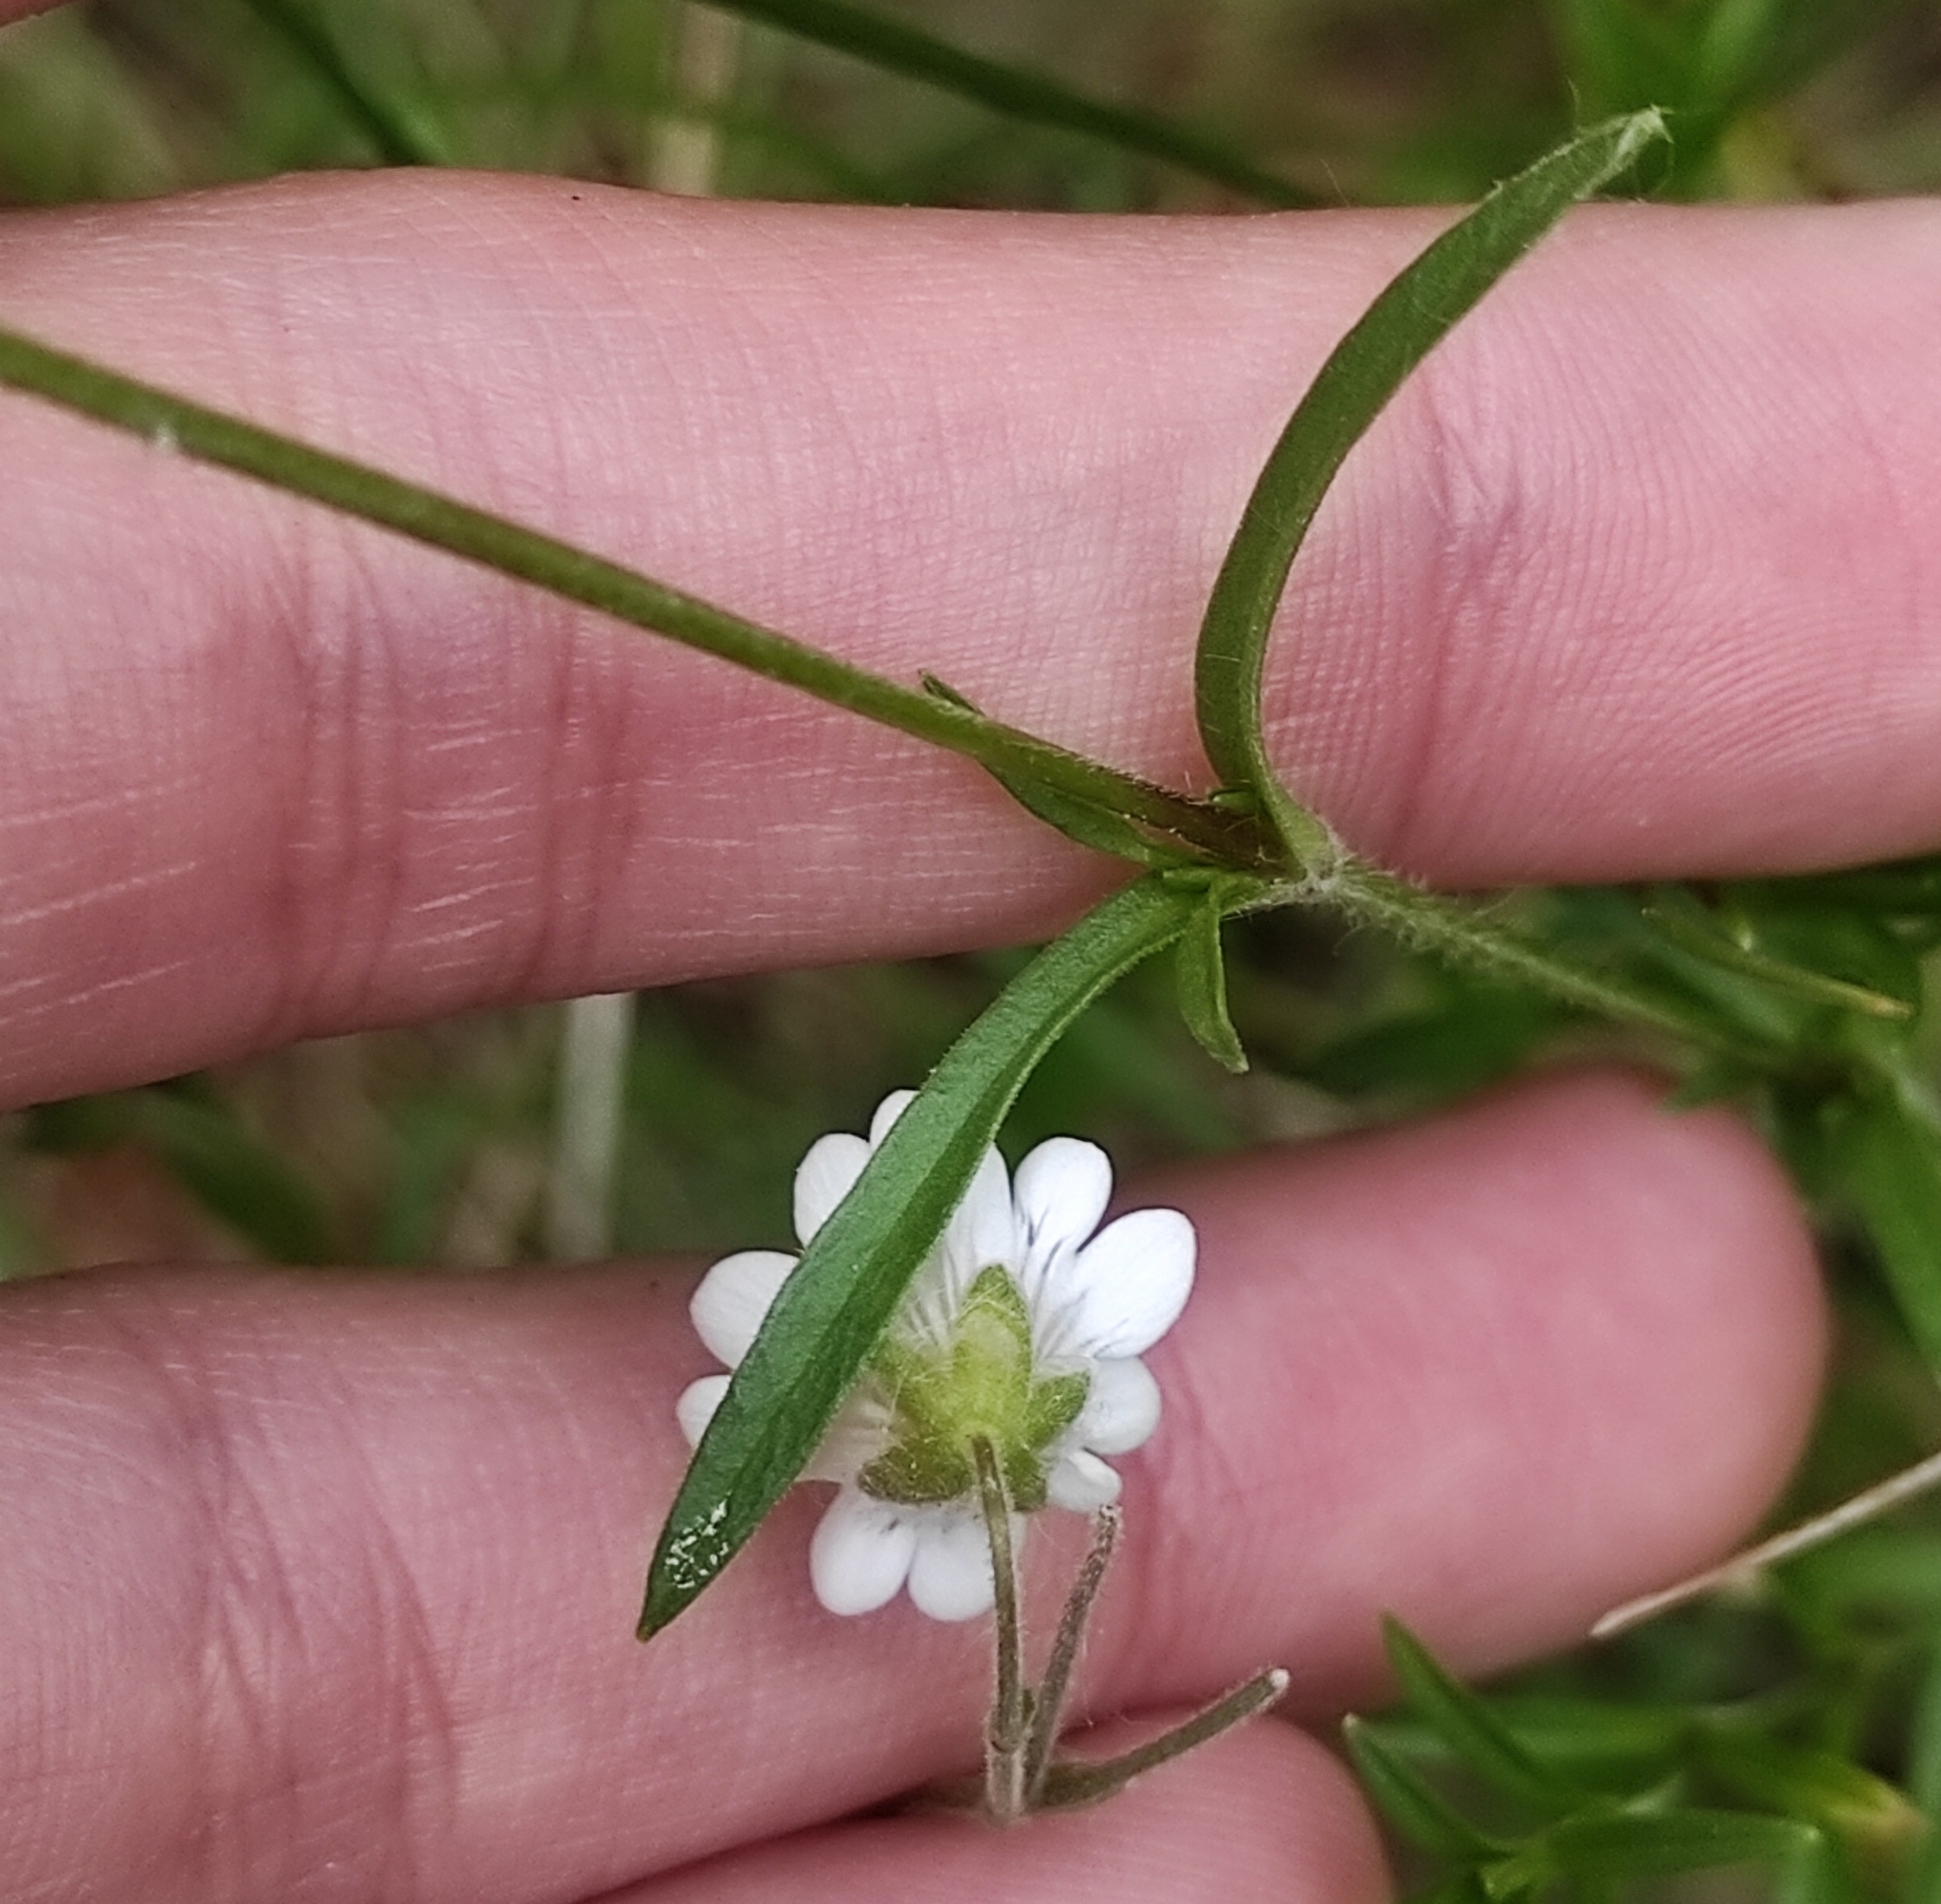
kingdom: Plantae
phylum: Tracheophyta
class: Magnoliopsida
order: Caryophyllales
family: Caryophyllaceae
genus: Cerastium
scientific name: Cerastium arvense
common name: Field mouse-ear
